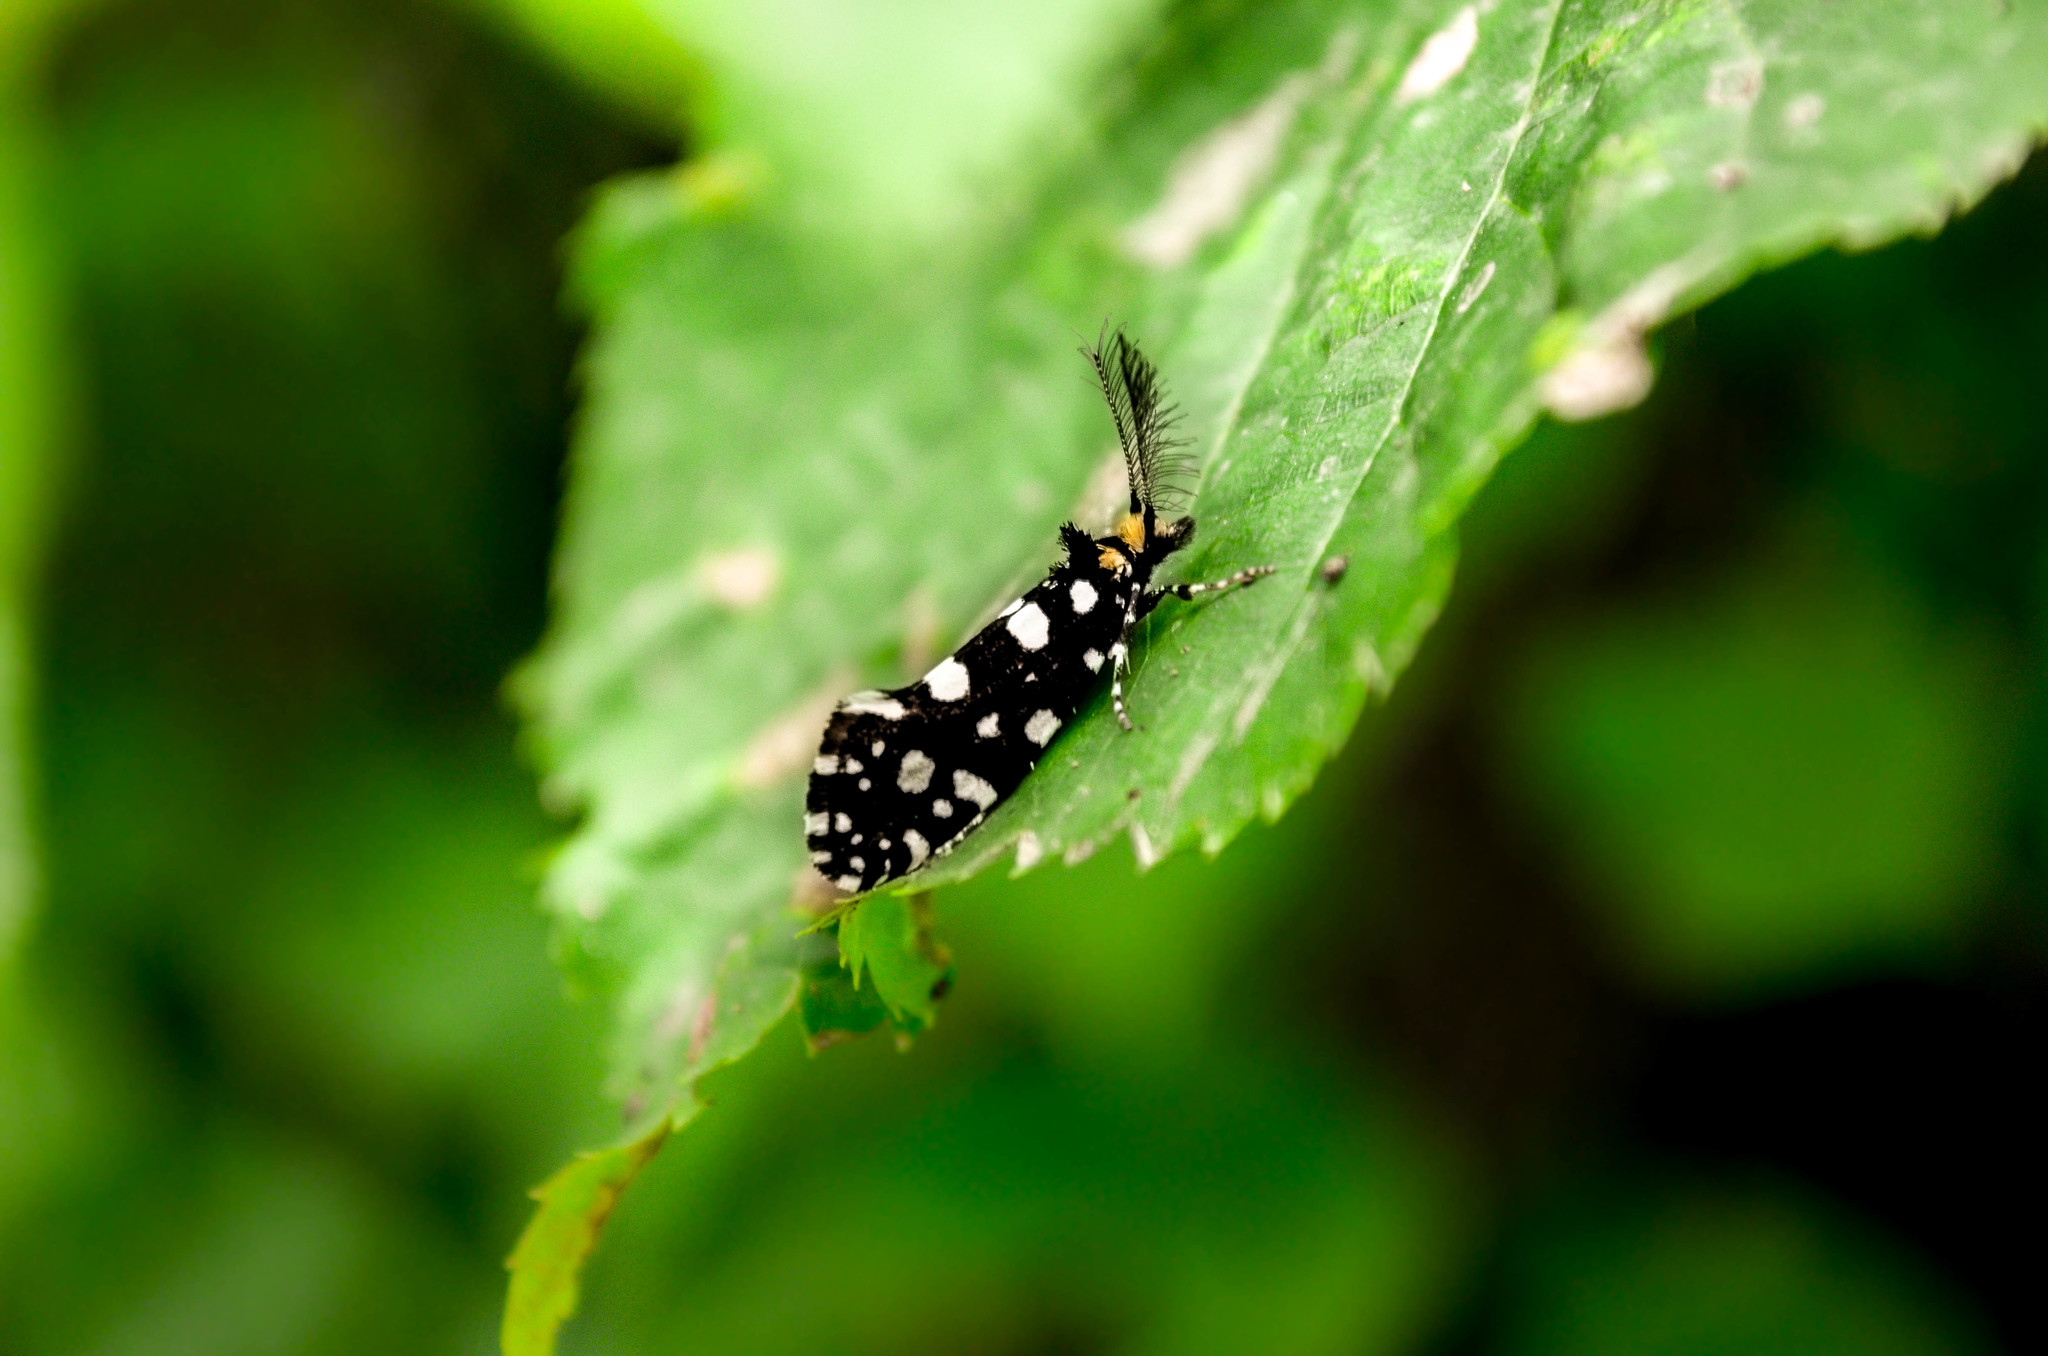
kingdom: Animalia
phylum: Arthropoda
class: Insecta
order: Lepidoptera
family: Tineidae
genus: Euplocamus
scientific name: Euplocamus anthracinalis
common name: Black clothes
